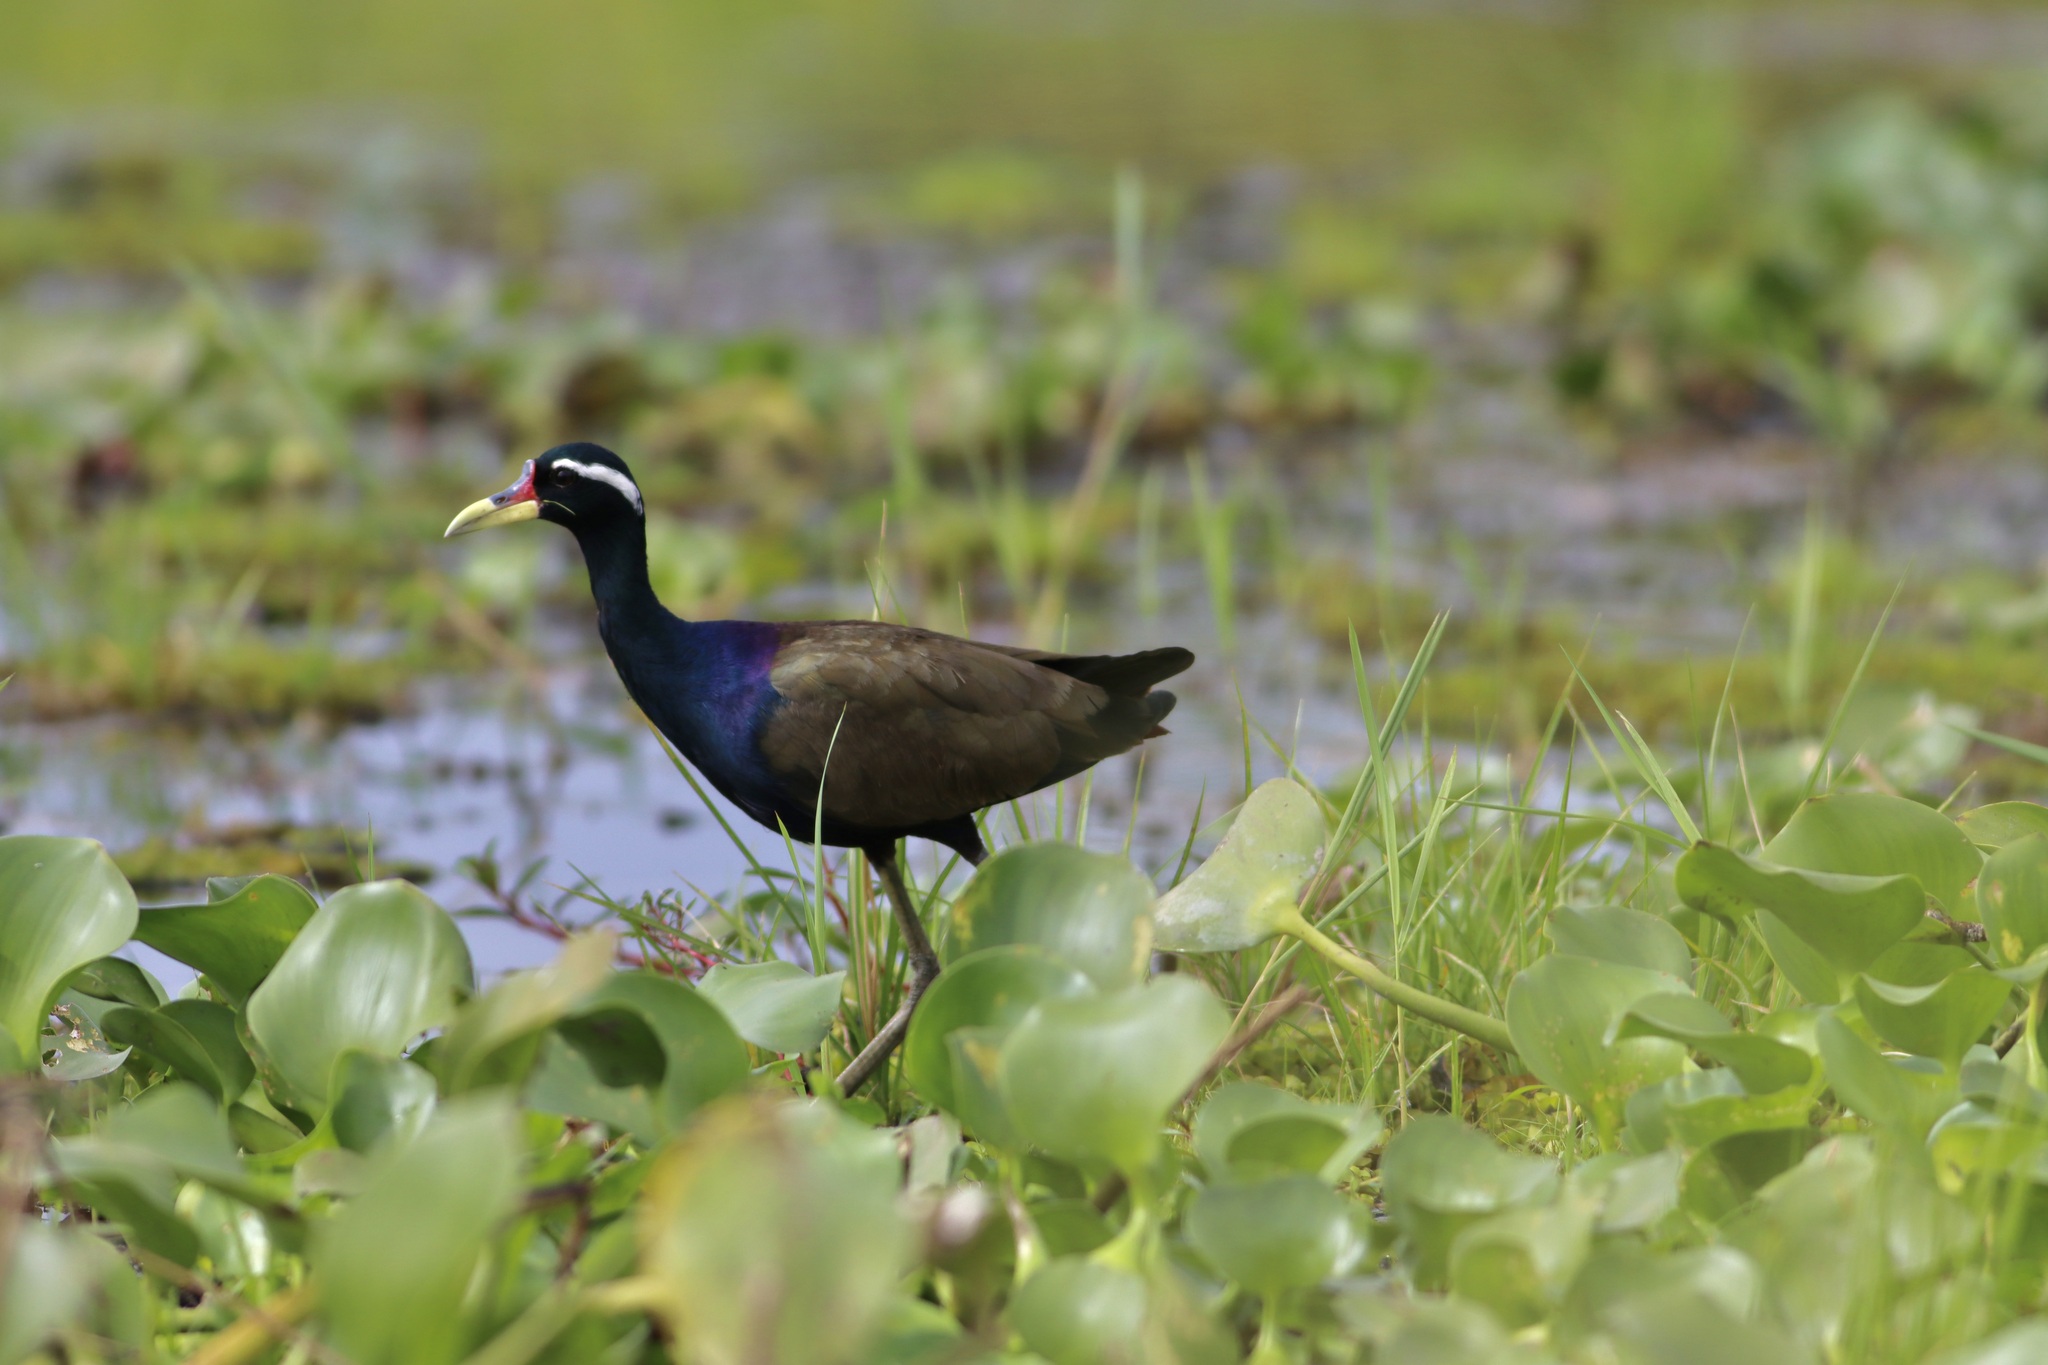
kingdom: Animalia
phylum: Chordata
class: Aves
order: Charadriiformes
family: Jacanidae
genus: Metopidius
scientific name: Metopidius indicus
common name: Bronze-winged jacana
